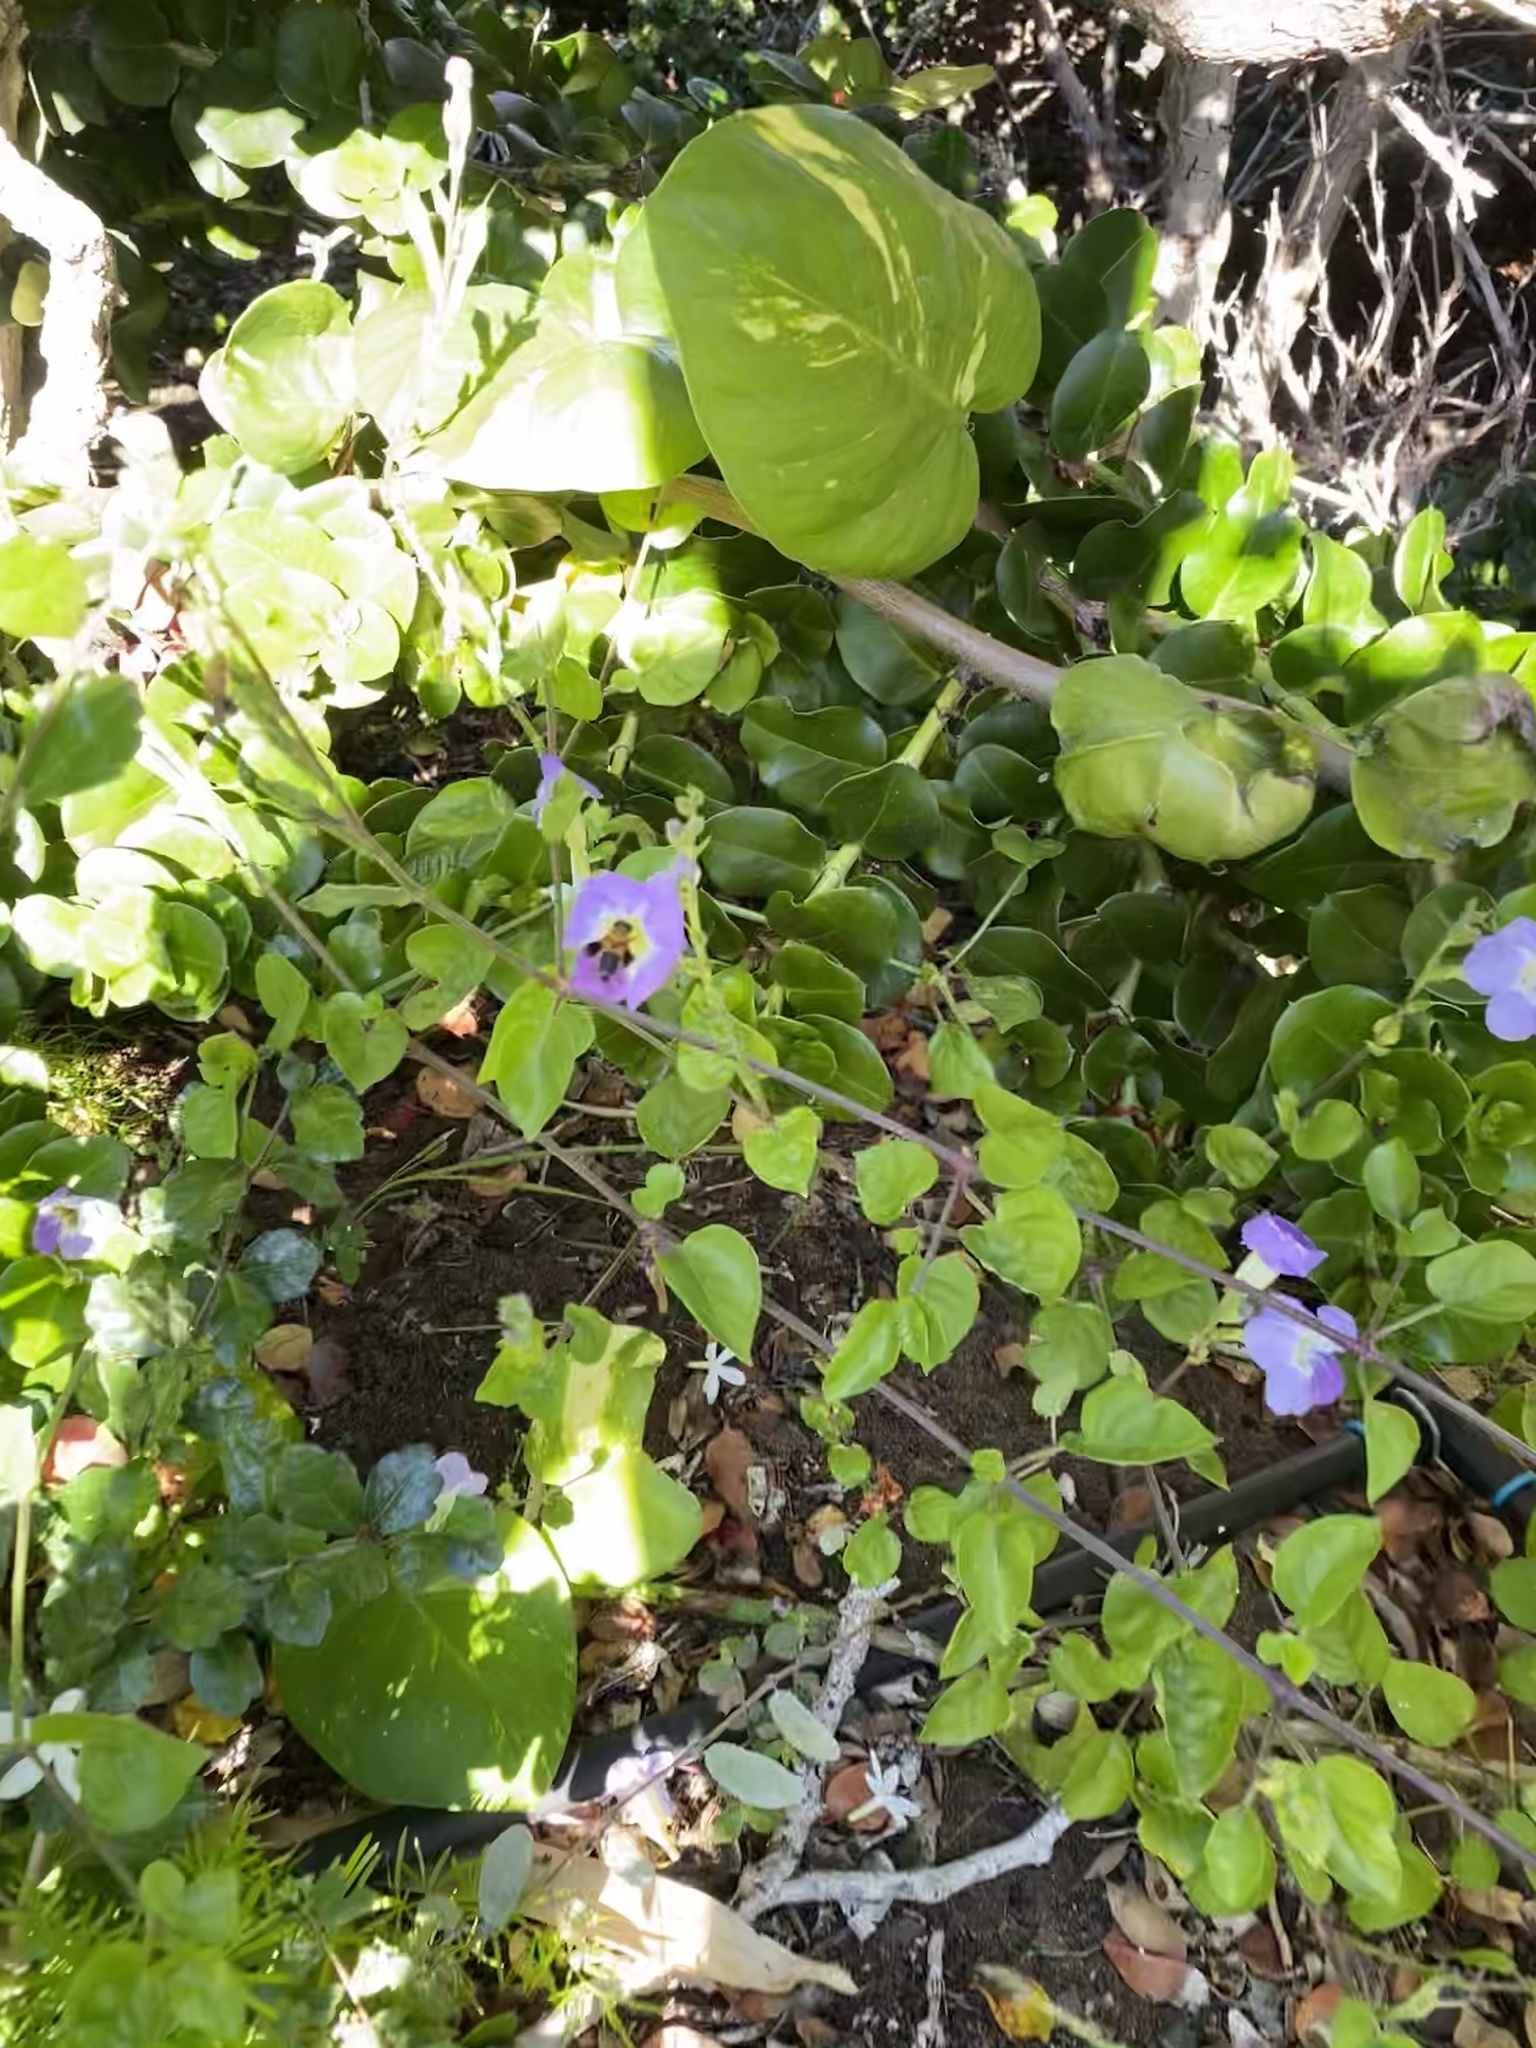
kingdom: Animalia
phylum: Arthropoda
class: Insecta
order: Hymenoptera
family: Megachilidae
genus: Megachile
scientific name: Megachile umbripennis
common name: Shadow-winged resin bee
